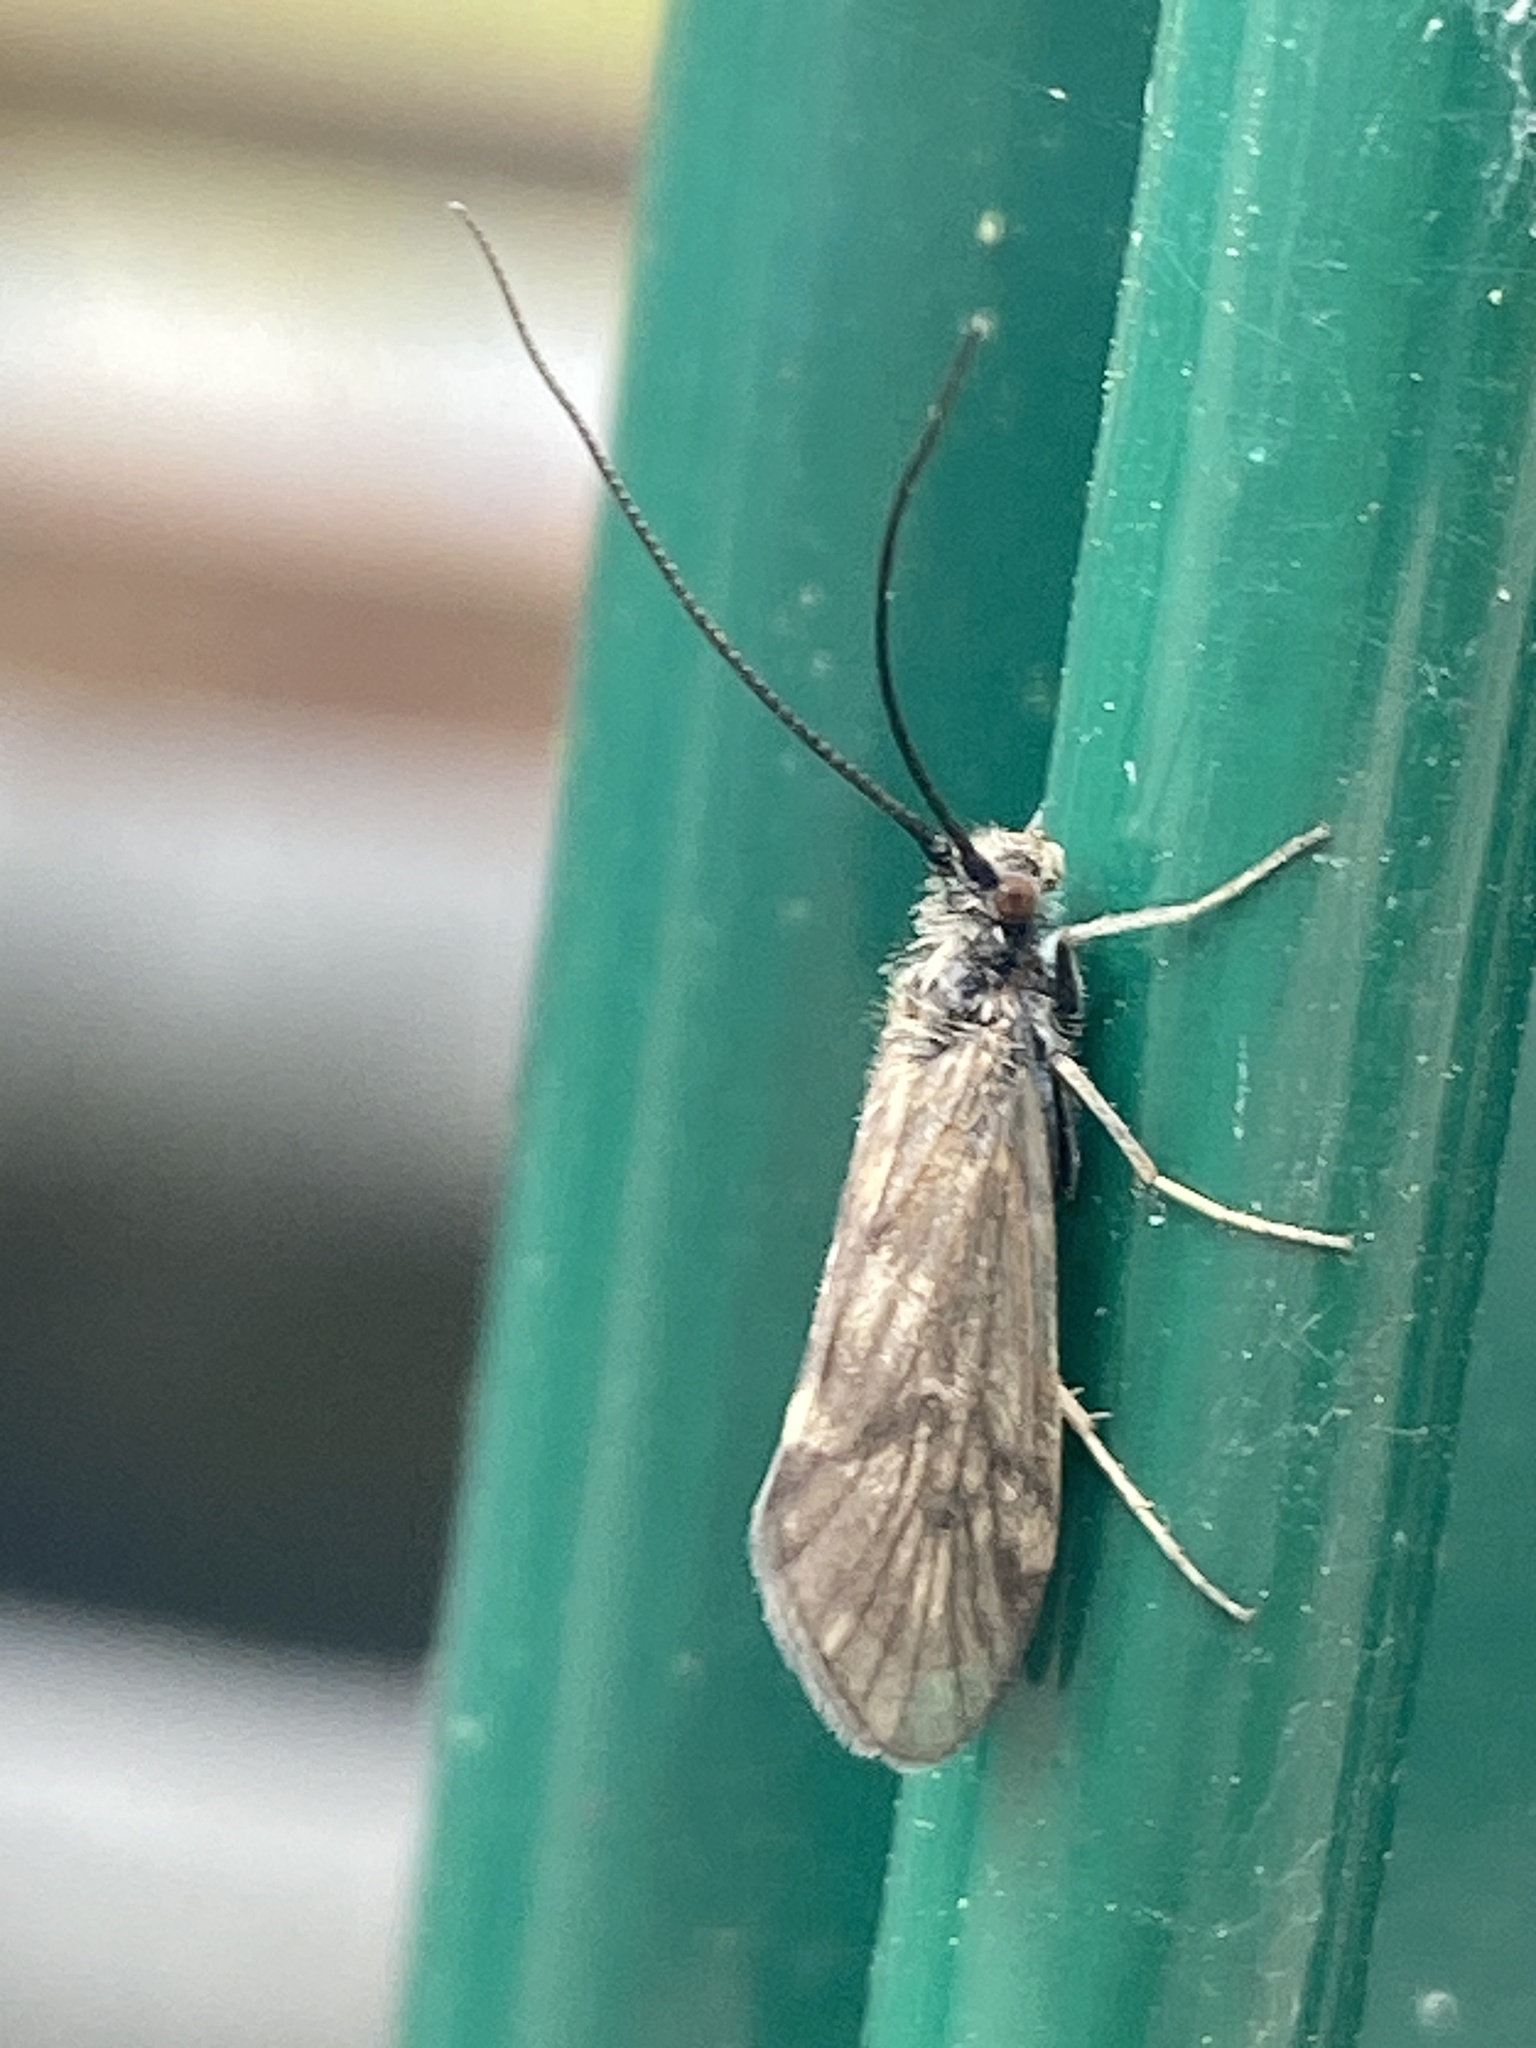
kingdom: Animalia
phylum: Arthropoda
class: Insecta
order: Trichoptera
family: Brachycentridae
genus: Brachycentrus
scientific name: Brachycentrus subnubilis
